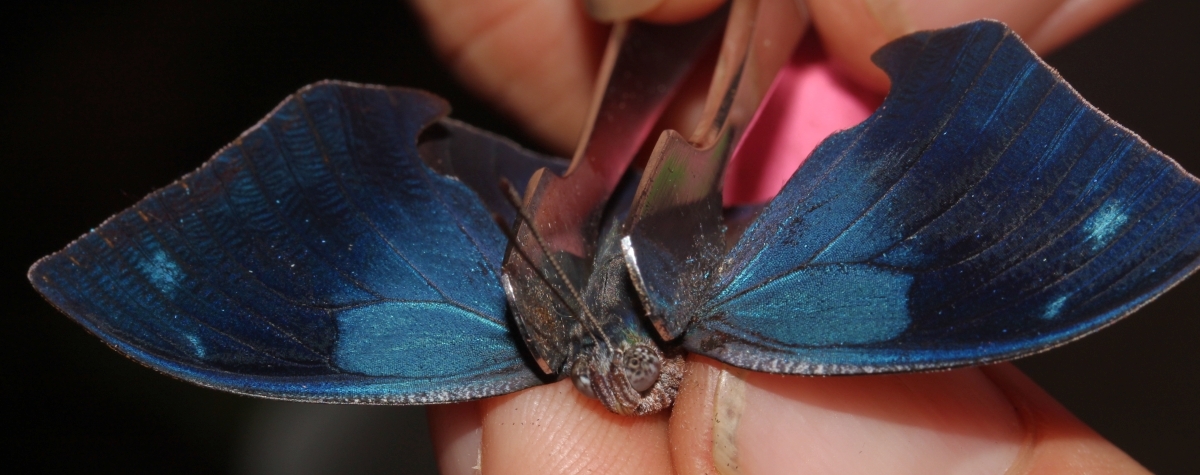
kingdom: Animalia
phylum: Arthropoda
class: Insecta
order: Lepidoptera
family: Nymphalidae
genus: Memphis
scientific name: Memphis moruus
